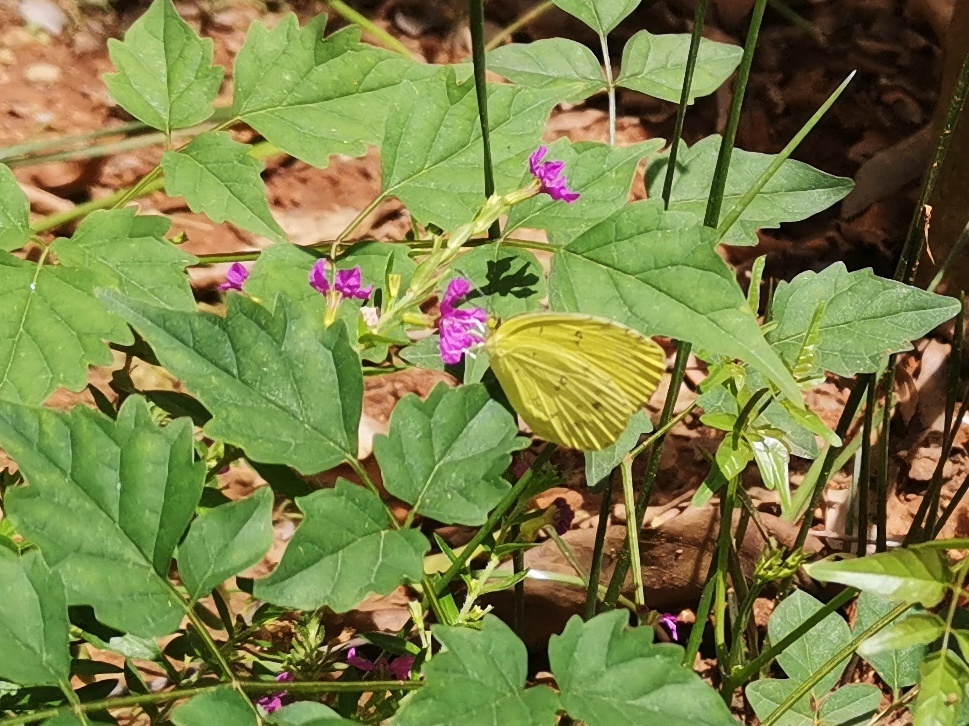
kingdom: Animalia
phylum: Arthropoda
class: Insecta
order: Lepidoptera
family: Pieridae
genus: Eurema
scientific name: Eurema hecabe
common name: Pale grass yellow
